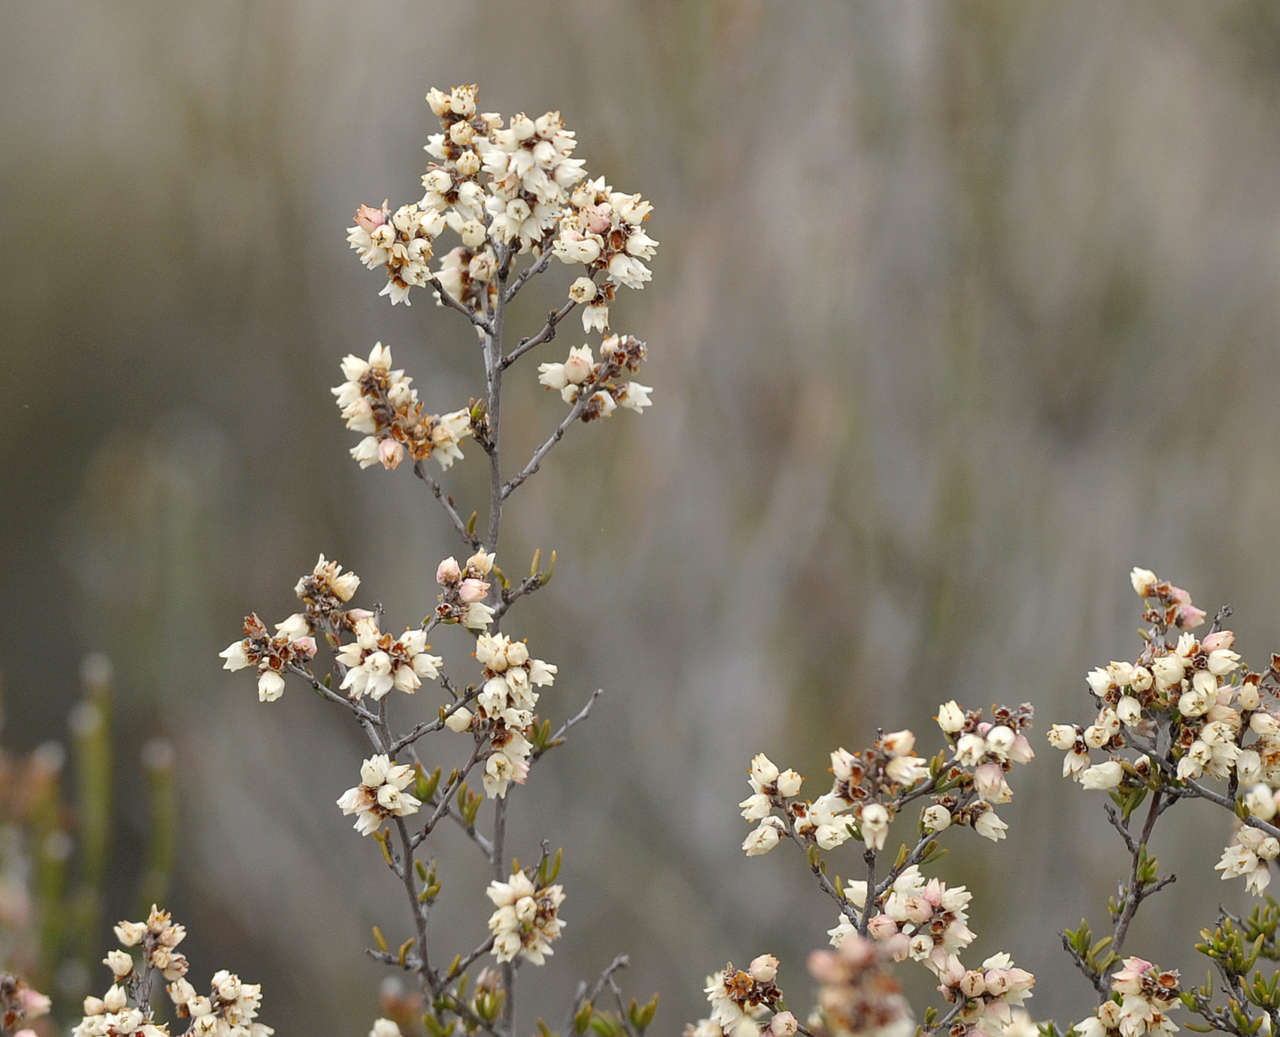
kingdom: Plantae
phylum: Tracheophyta
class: Magnoliopsida
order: Rosales
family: Rhamnaceae
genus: Cryptandra
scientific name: Cryptandra tomentosa
